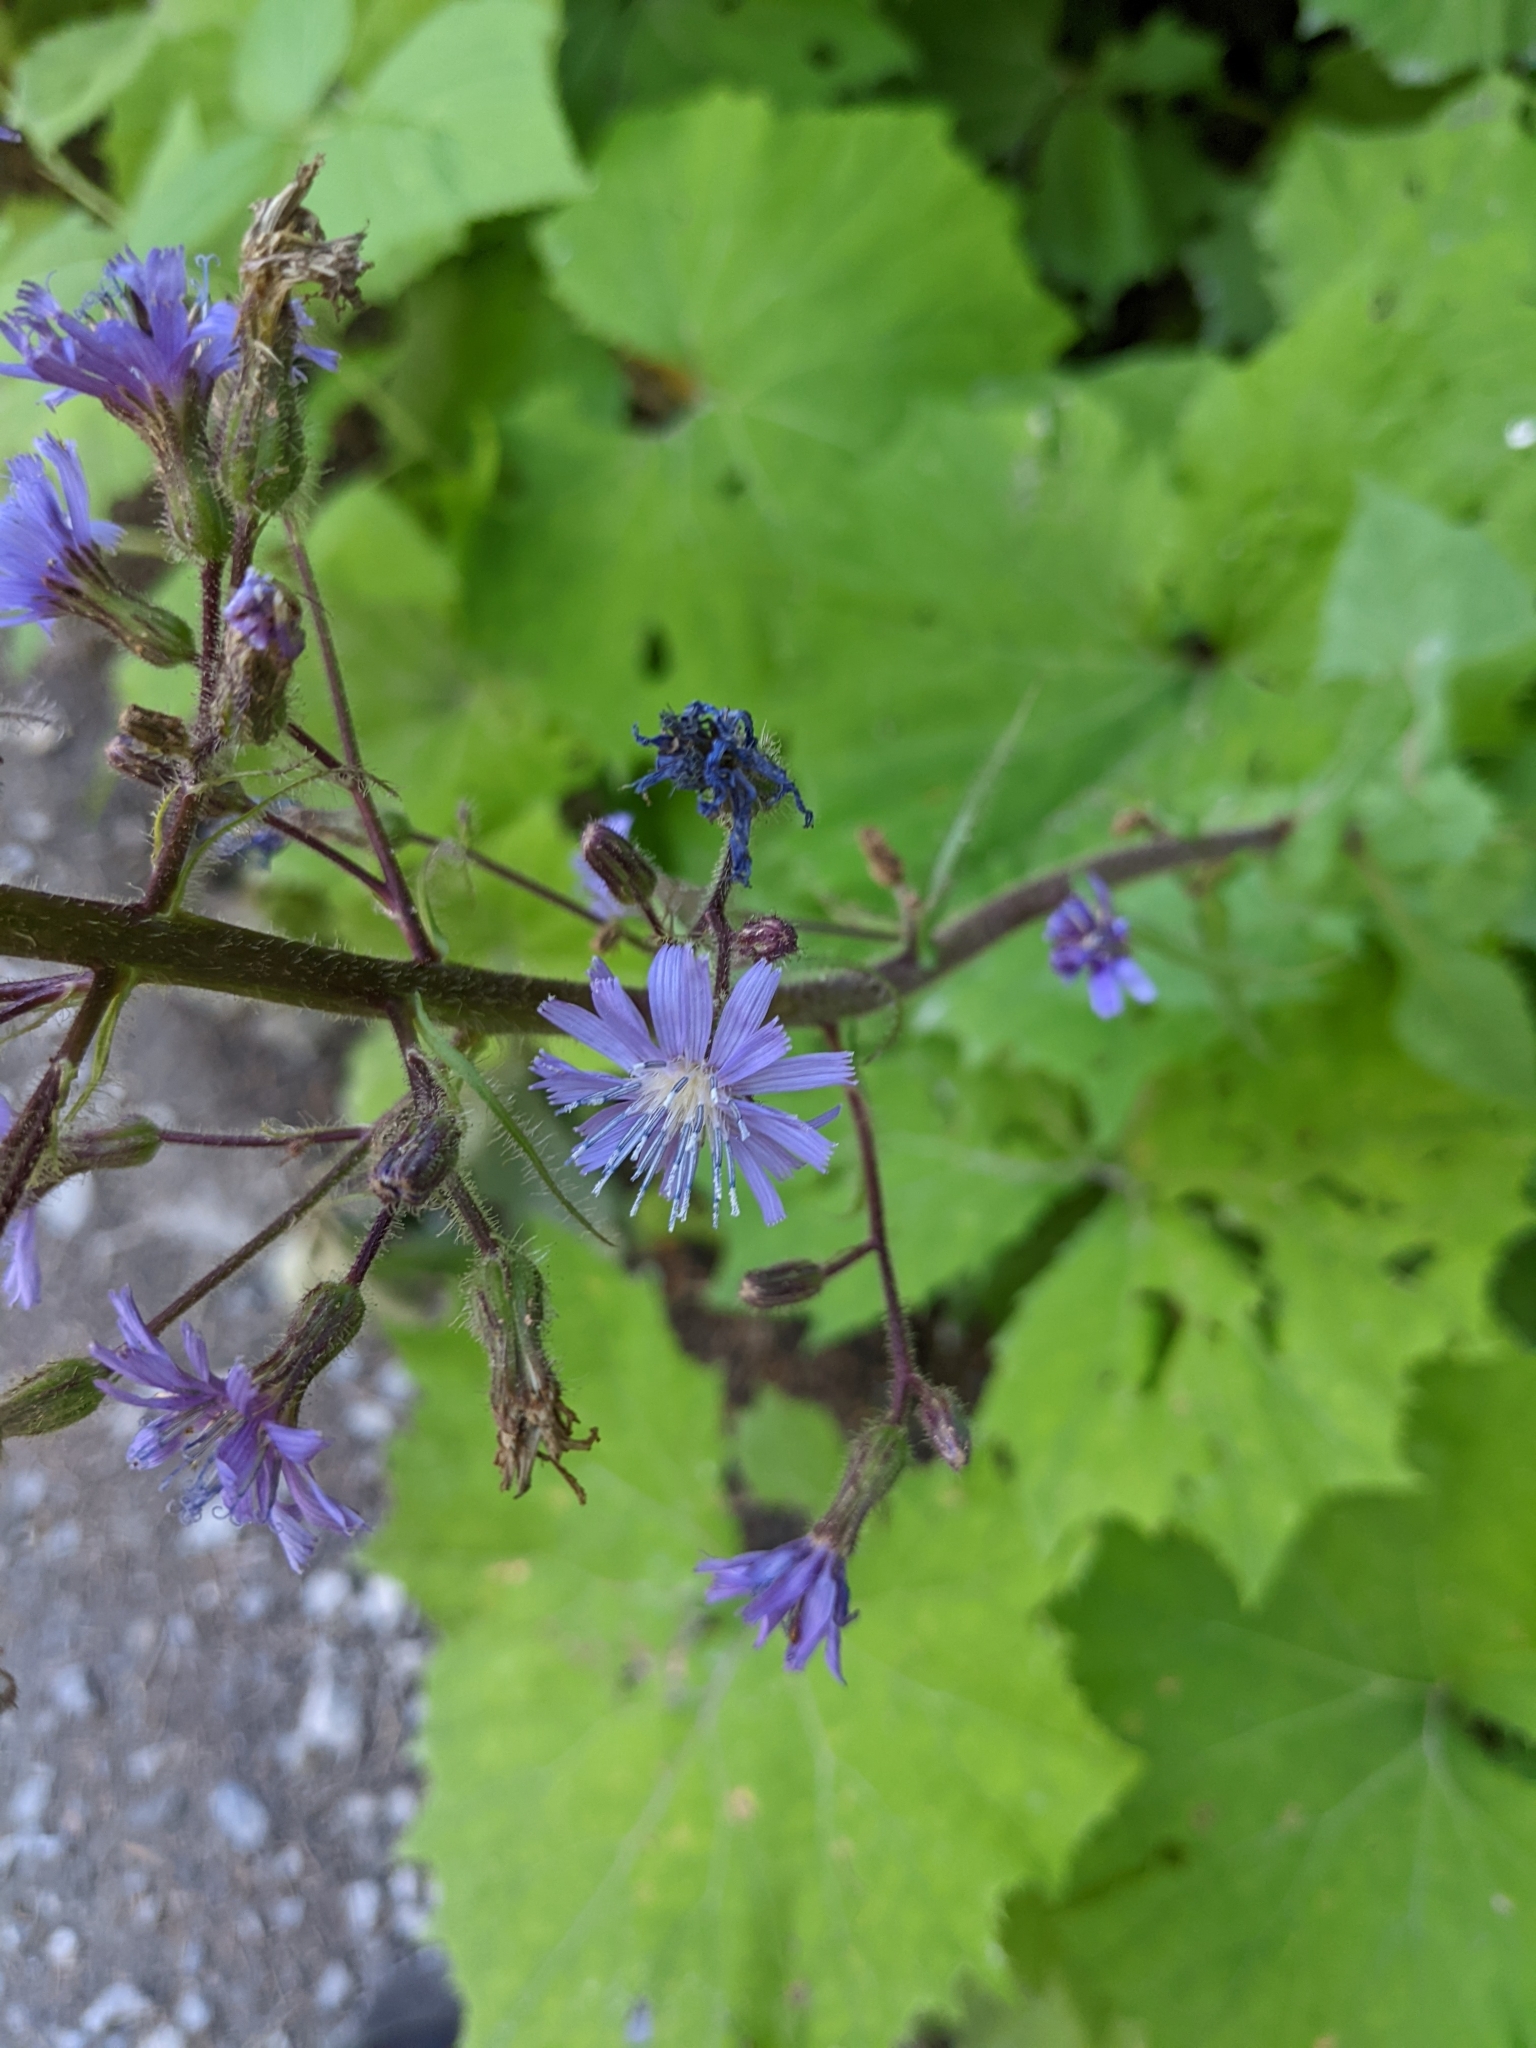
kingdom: Plantae
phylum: Tracheophyta
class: Magnoliopsida
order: Asterales
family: Asteraceae
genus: Cicerbita
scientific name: Cicerbita alpina
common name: Alpine blue-sow-thistle
